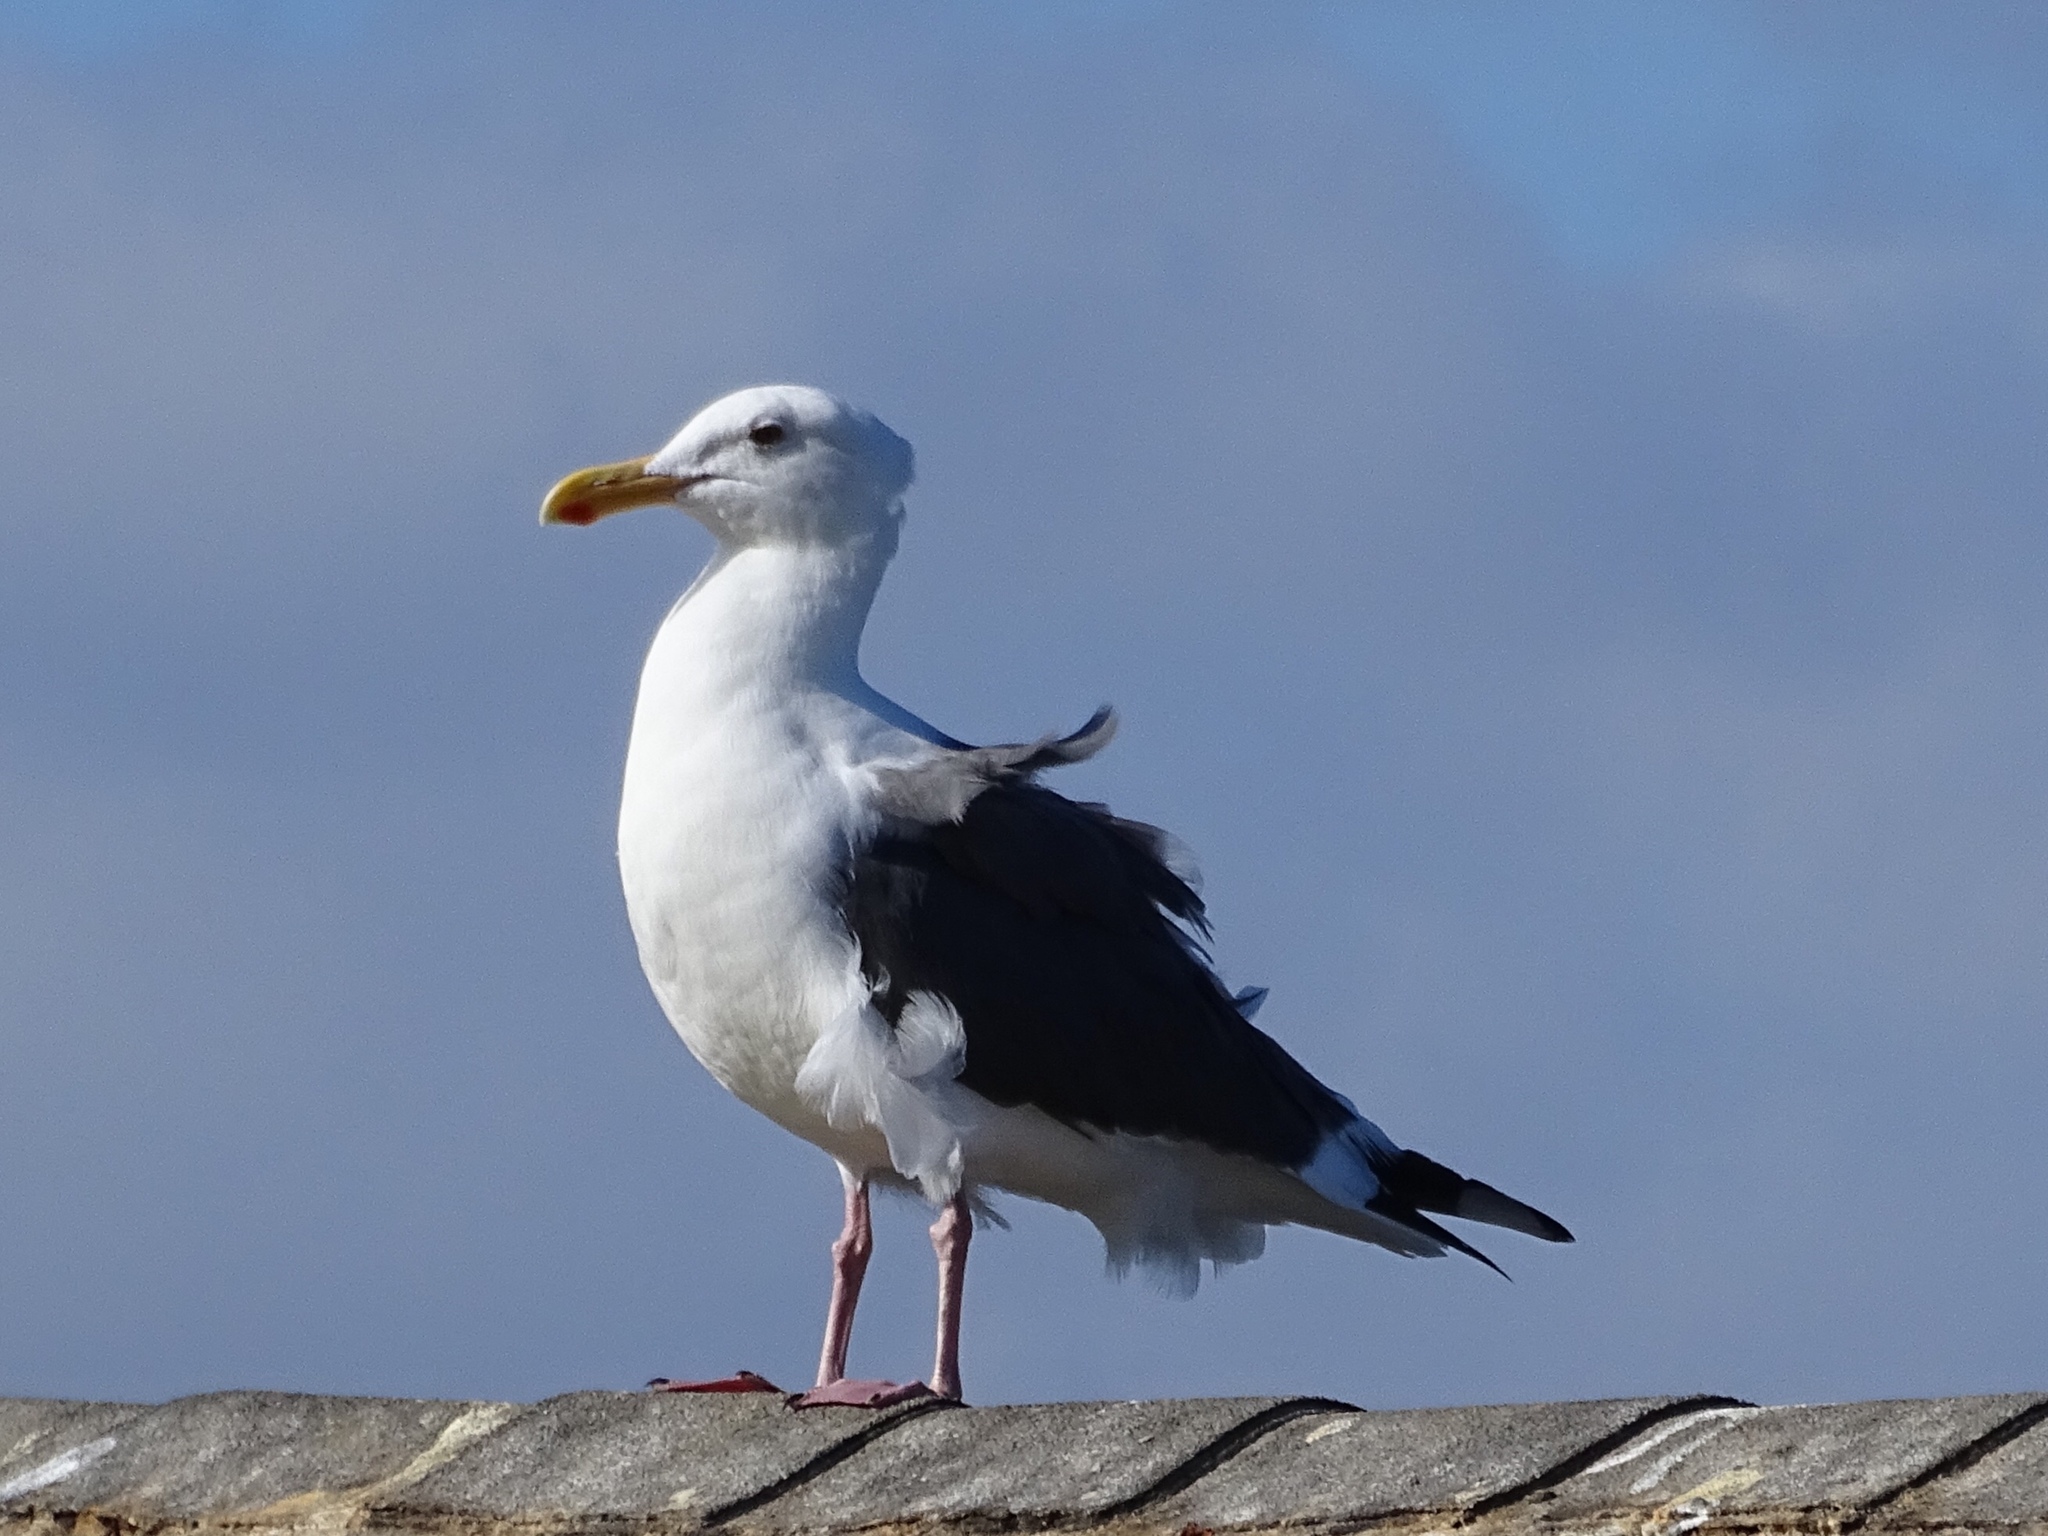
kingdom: Animalia
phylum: Chordata
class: Aves
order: Charadriiformes
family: Laridae
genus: Larus
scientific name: Larus occidentalis
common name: Western gull
